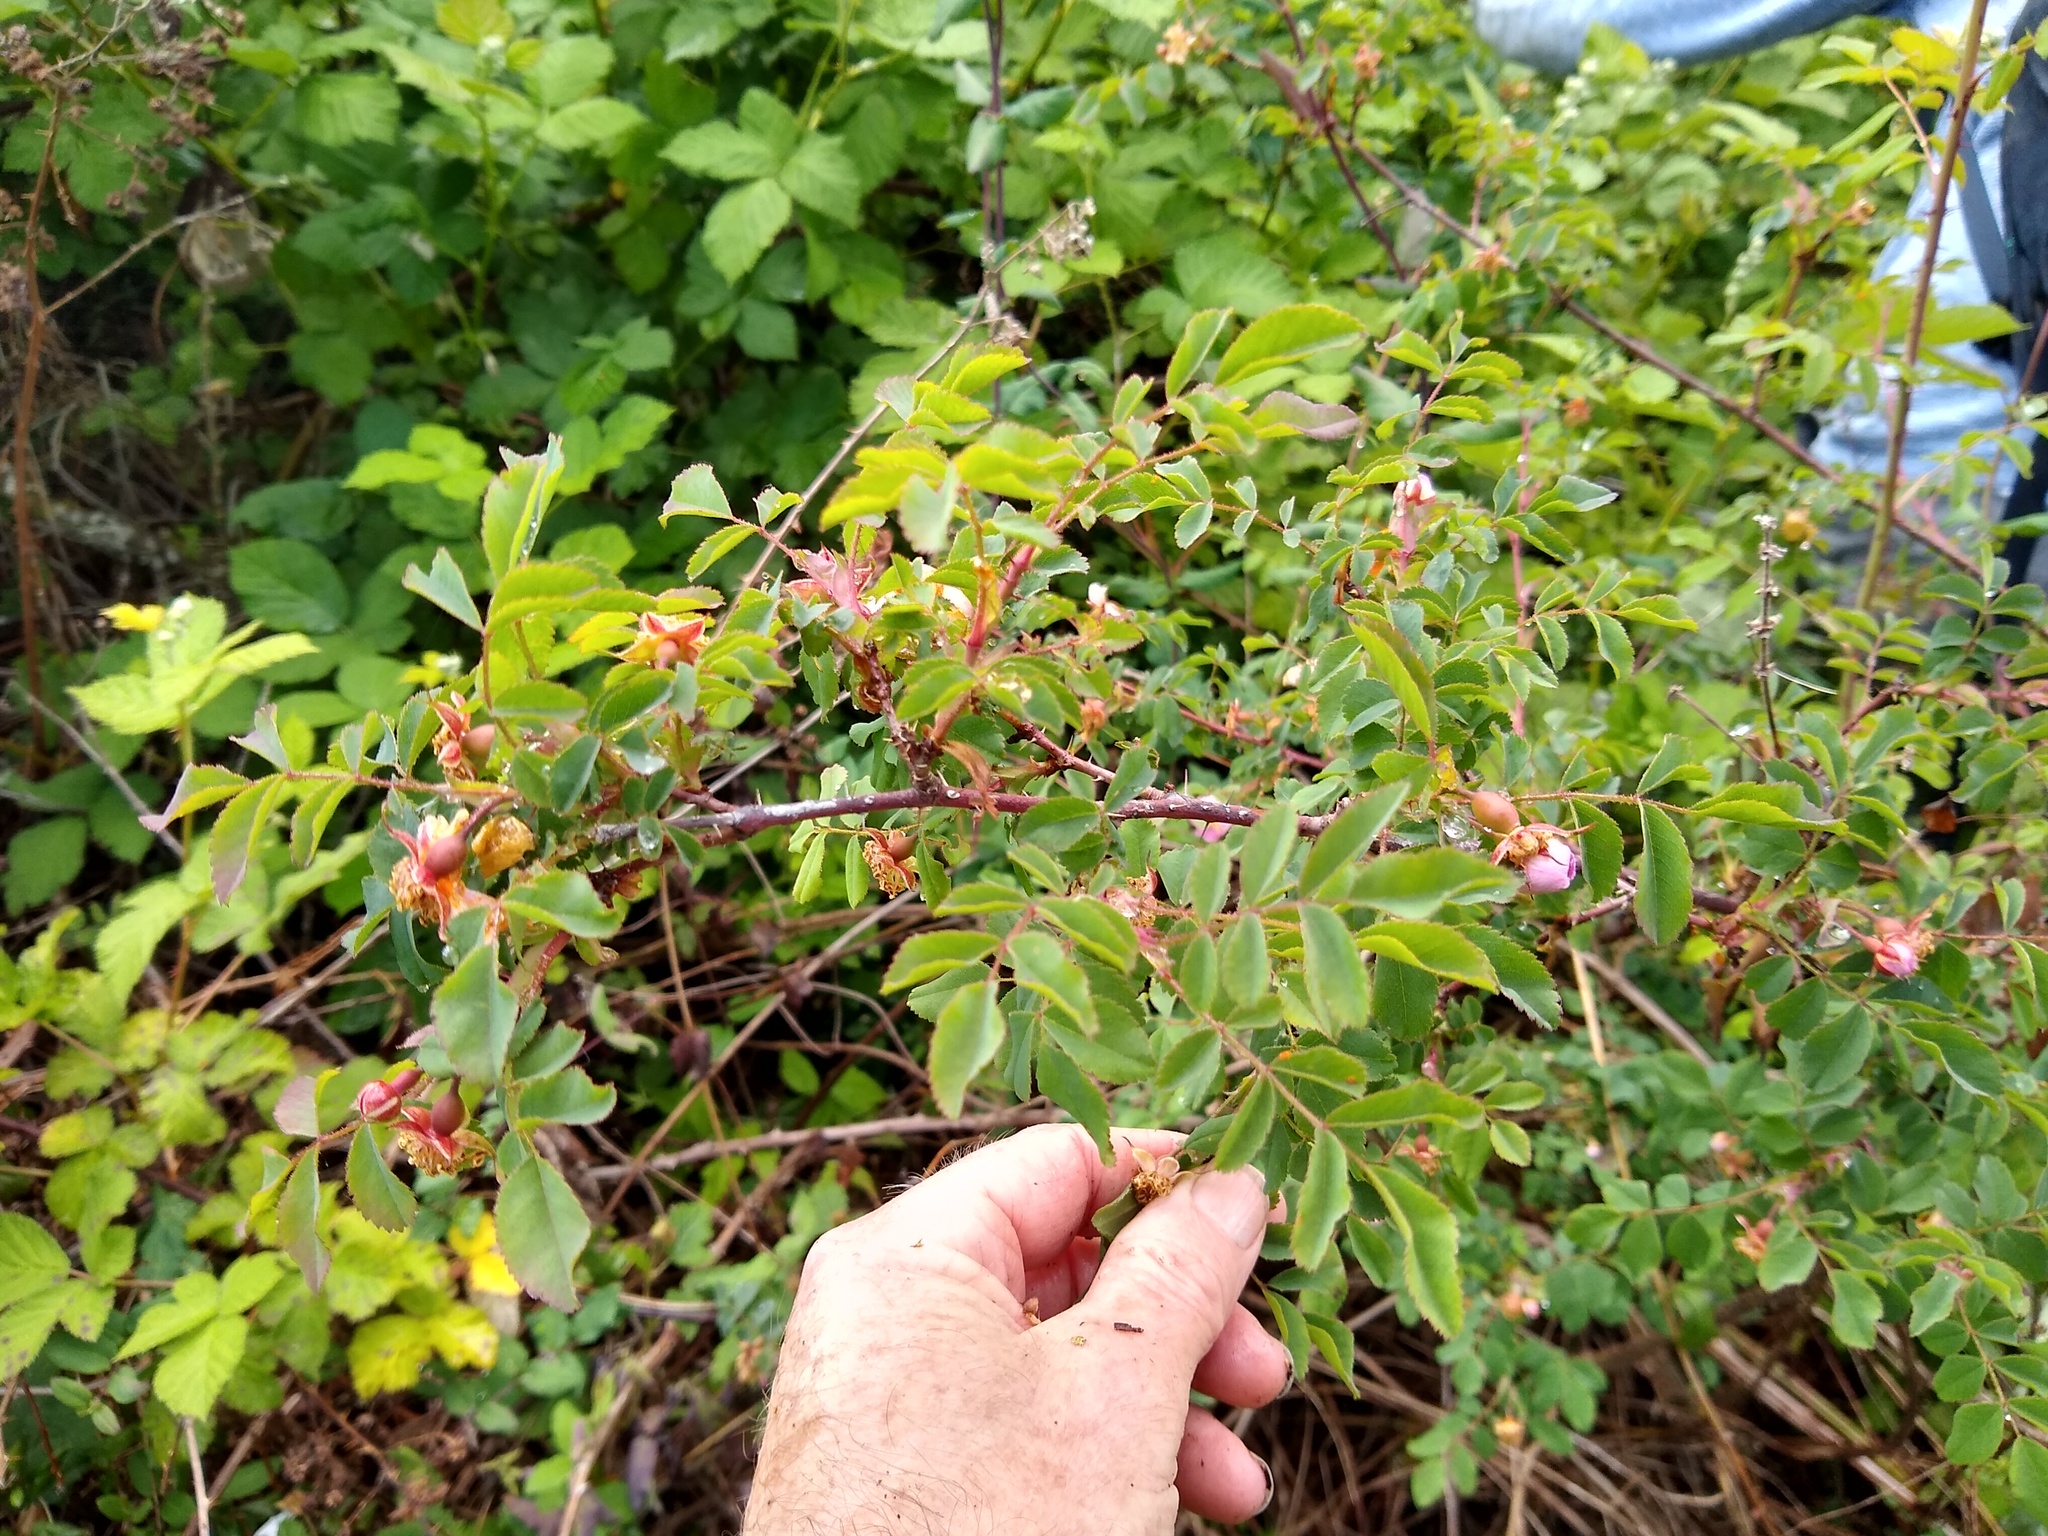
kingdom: Plantae
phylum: Tracheophyta
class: Magnoliopsida
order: Rosales
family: Rosaceae
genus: Rosa
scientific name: Rosa nutkana
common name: Nootka rose
